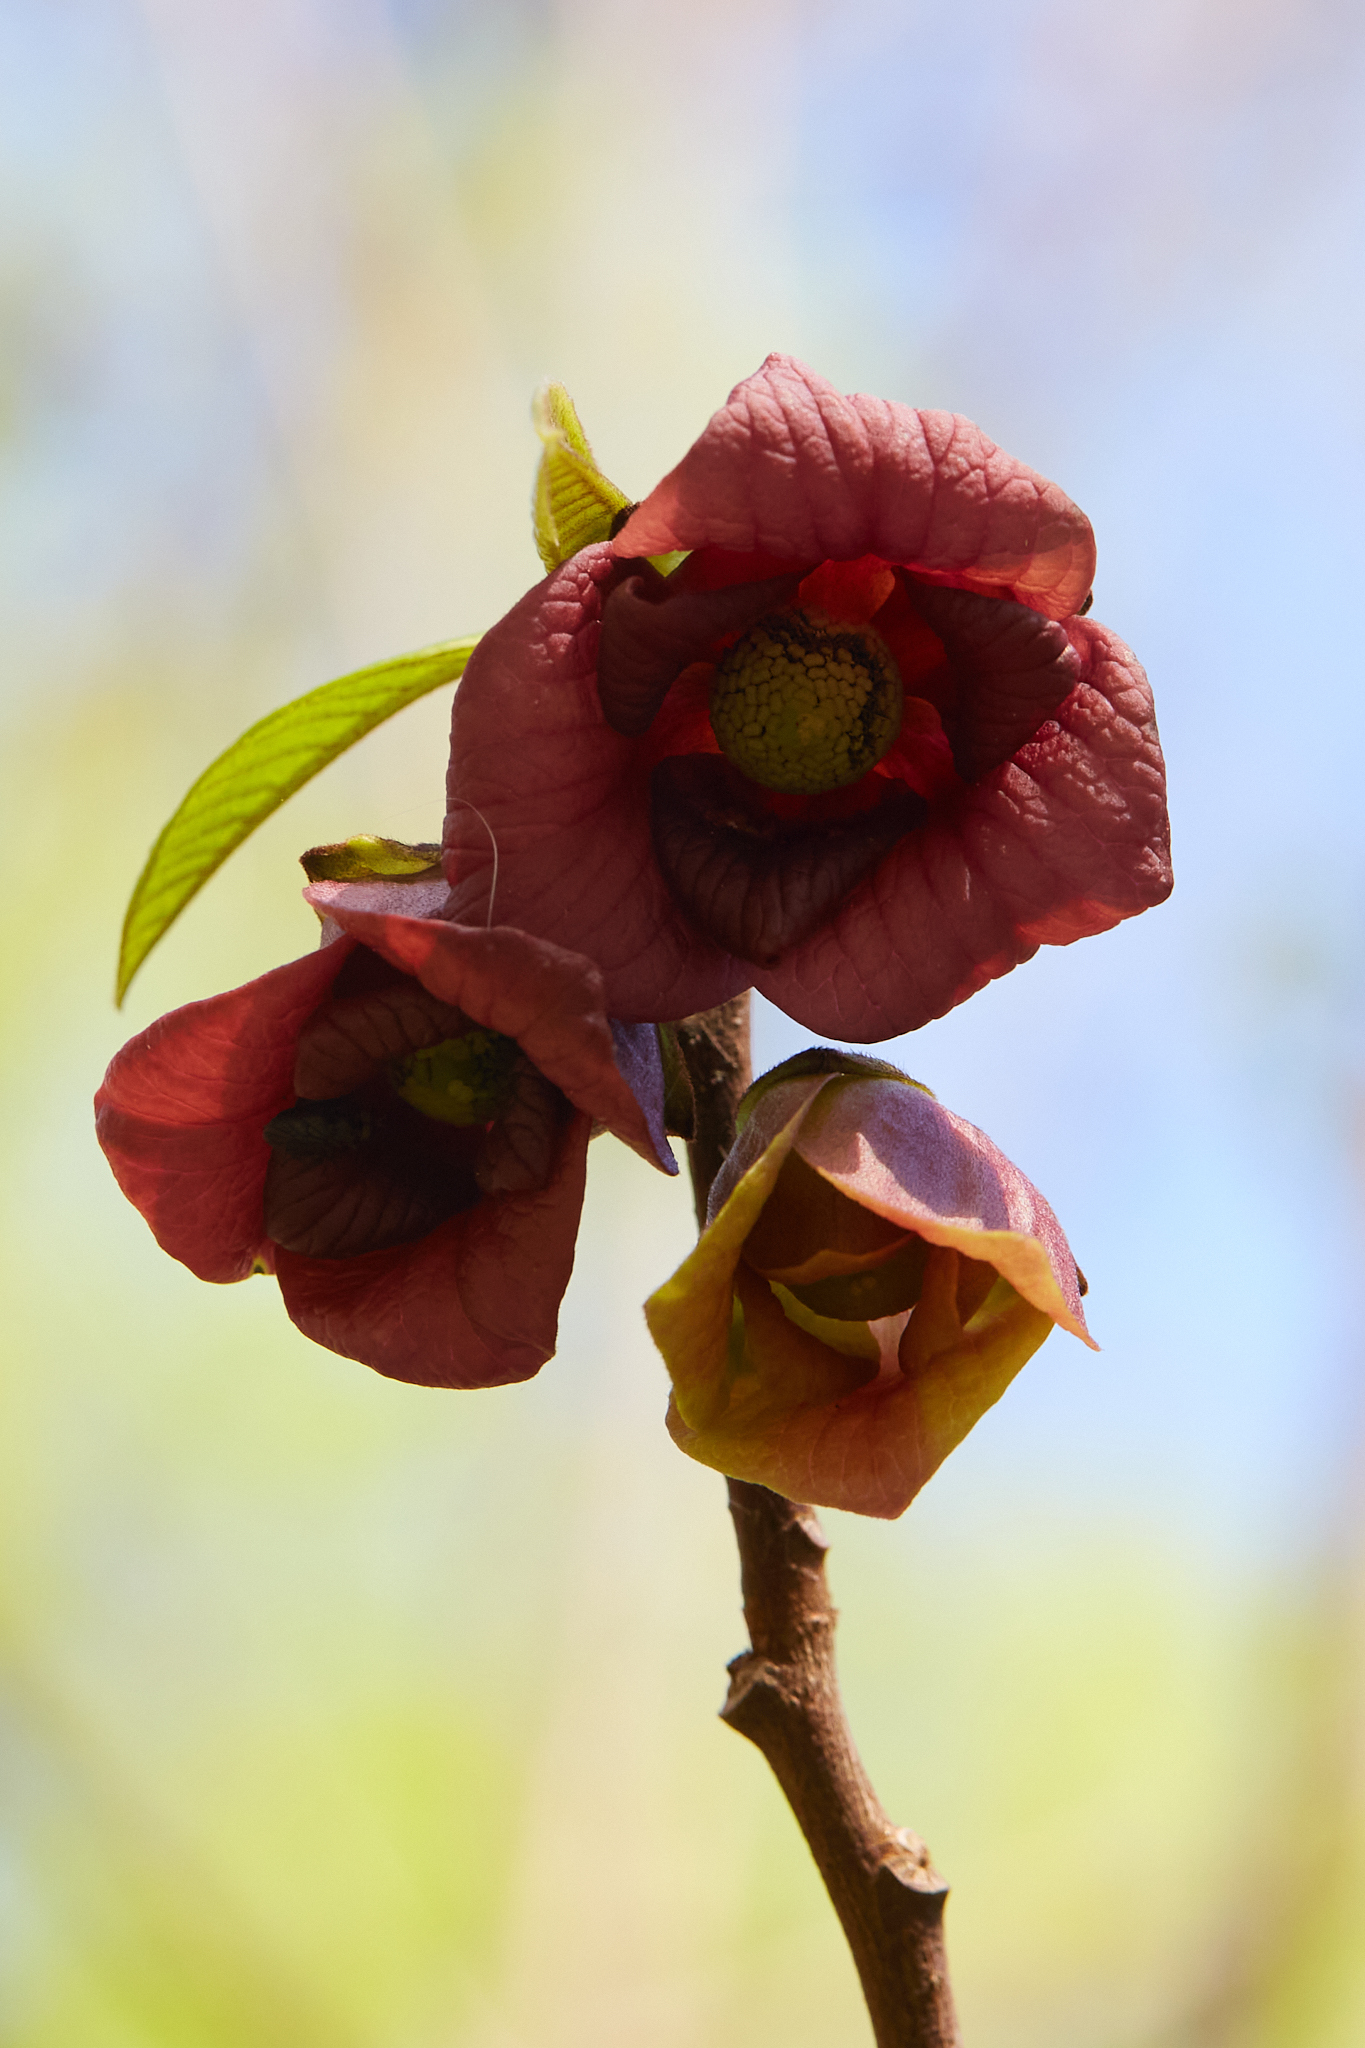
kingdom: Plantae
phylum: Tracheophyta
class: Magnoliopsida
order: Magnoliales
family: Annonaceae
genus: Asimina
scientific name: Asimina triloba
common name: Dog-banana
